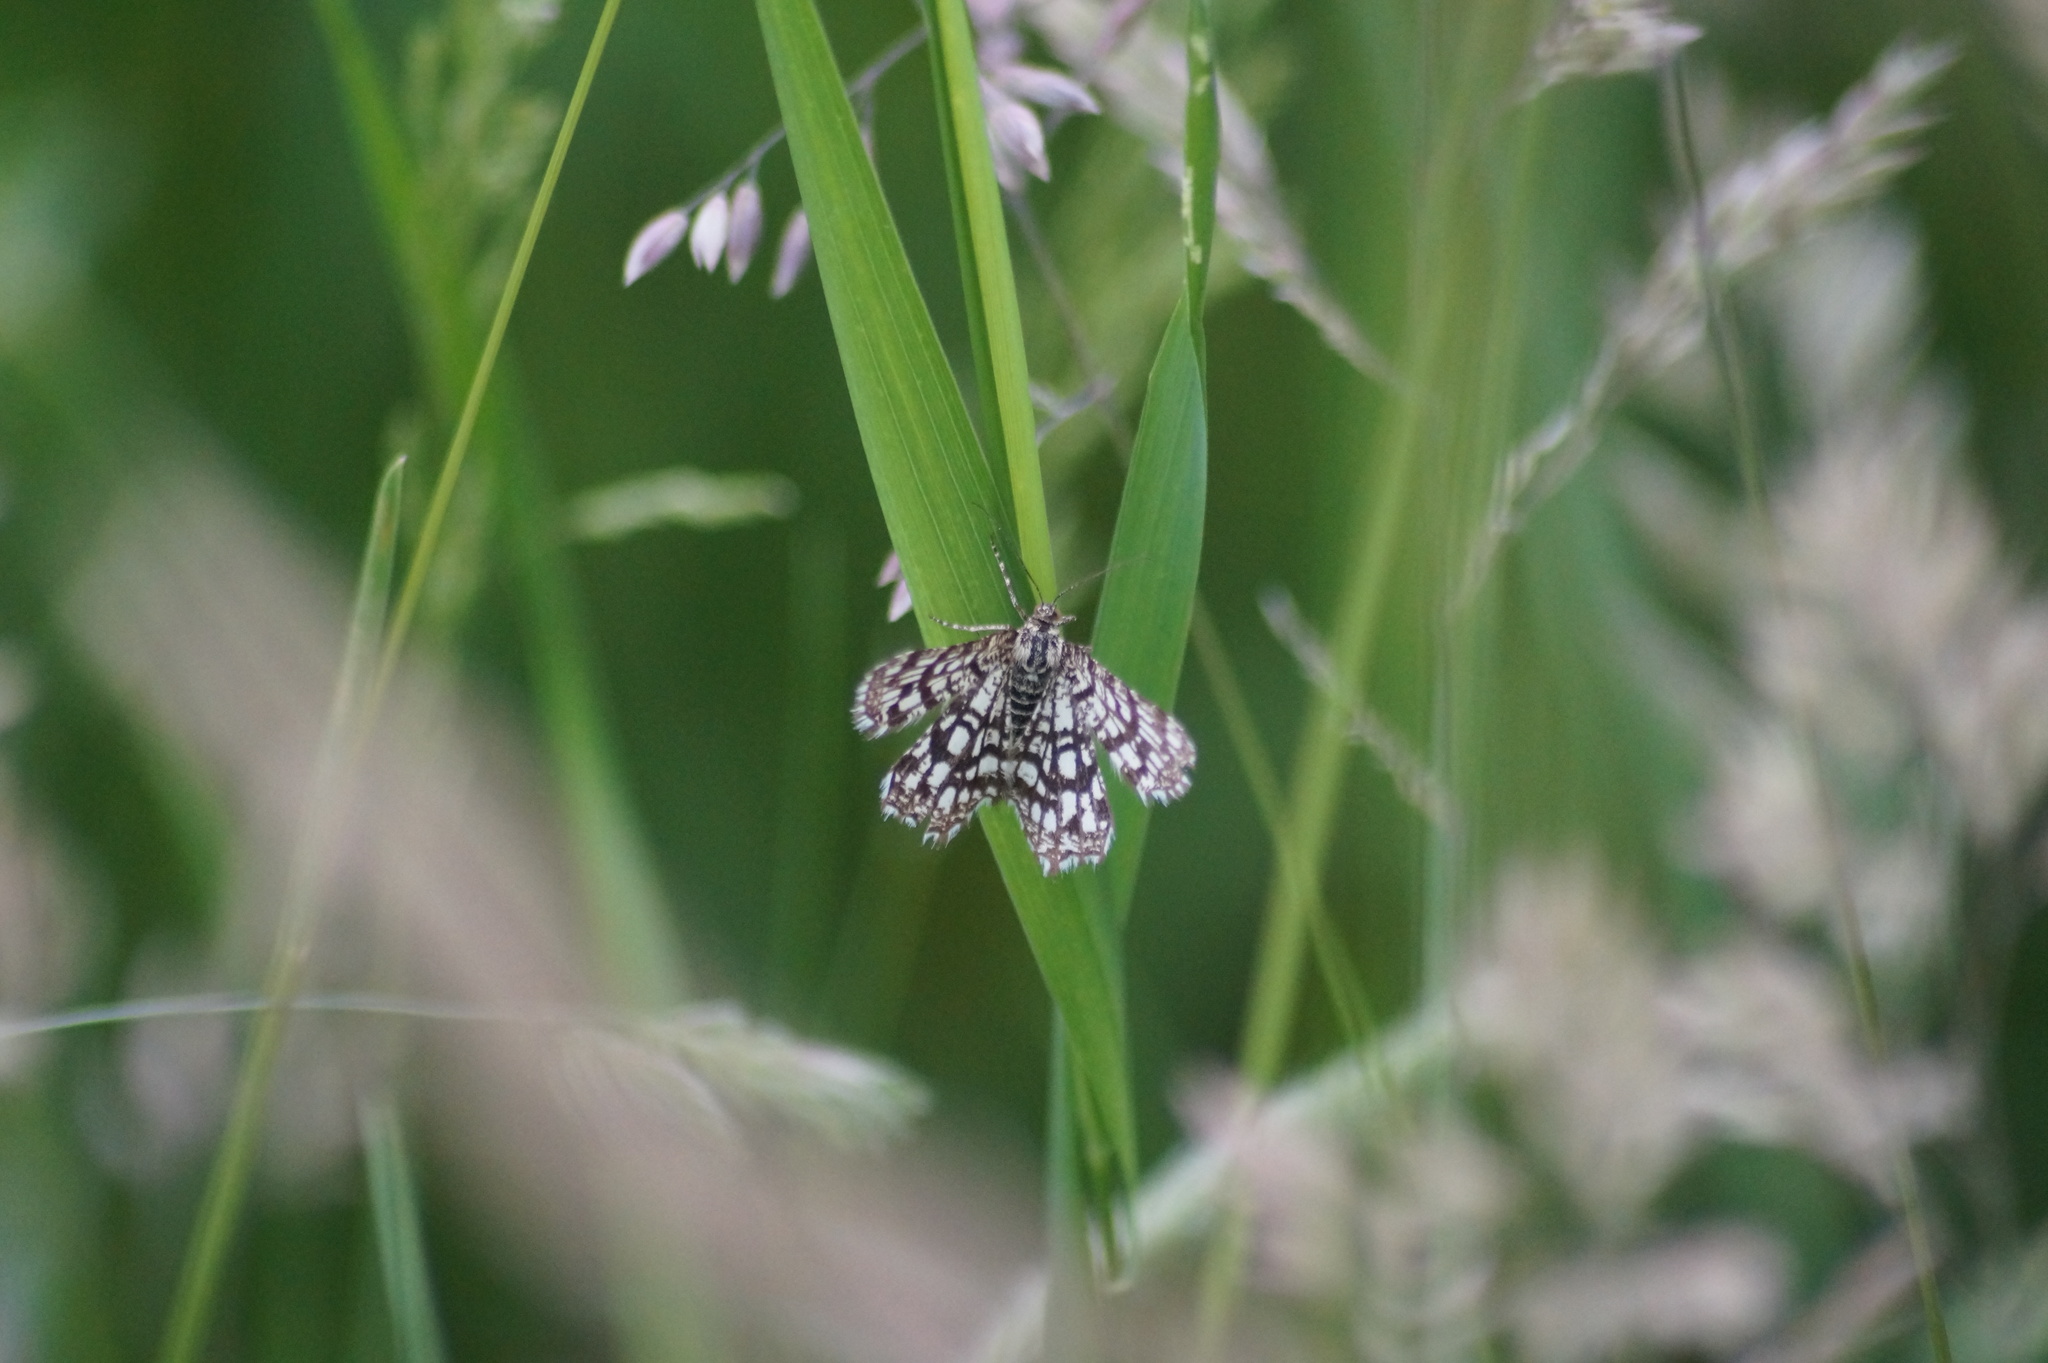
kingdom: Animalia
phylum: Arthropoda
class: Insecta
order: Lepidoptera
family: Geometridae
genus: Chiasmia
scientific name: Chiasmia clathrata
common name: Latticed heath
